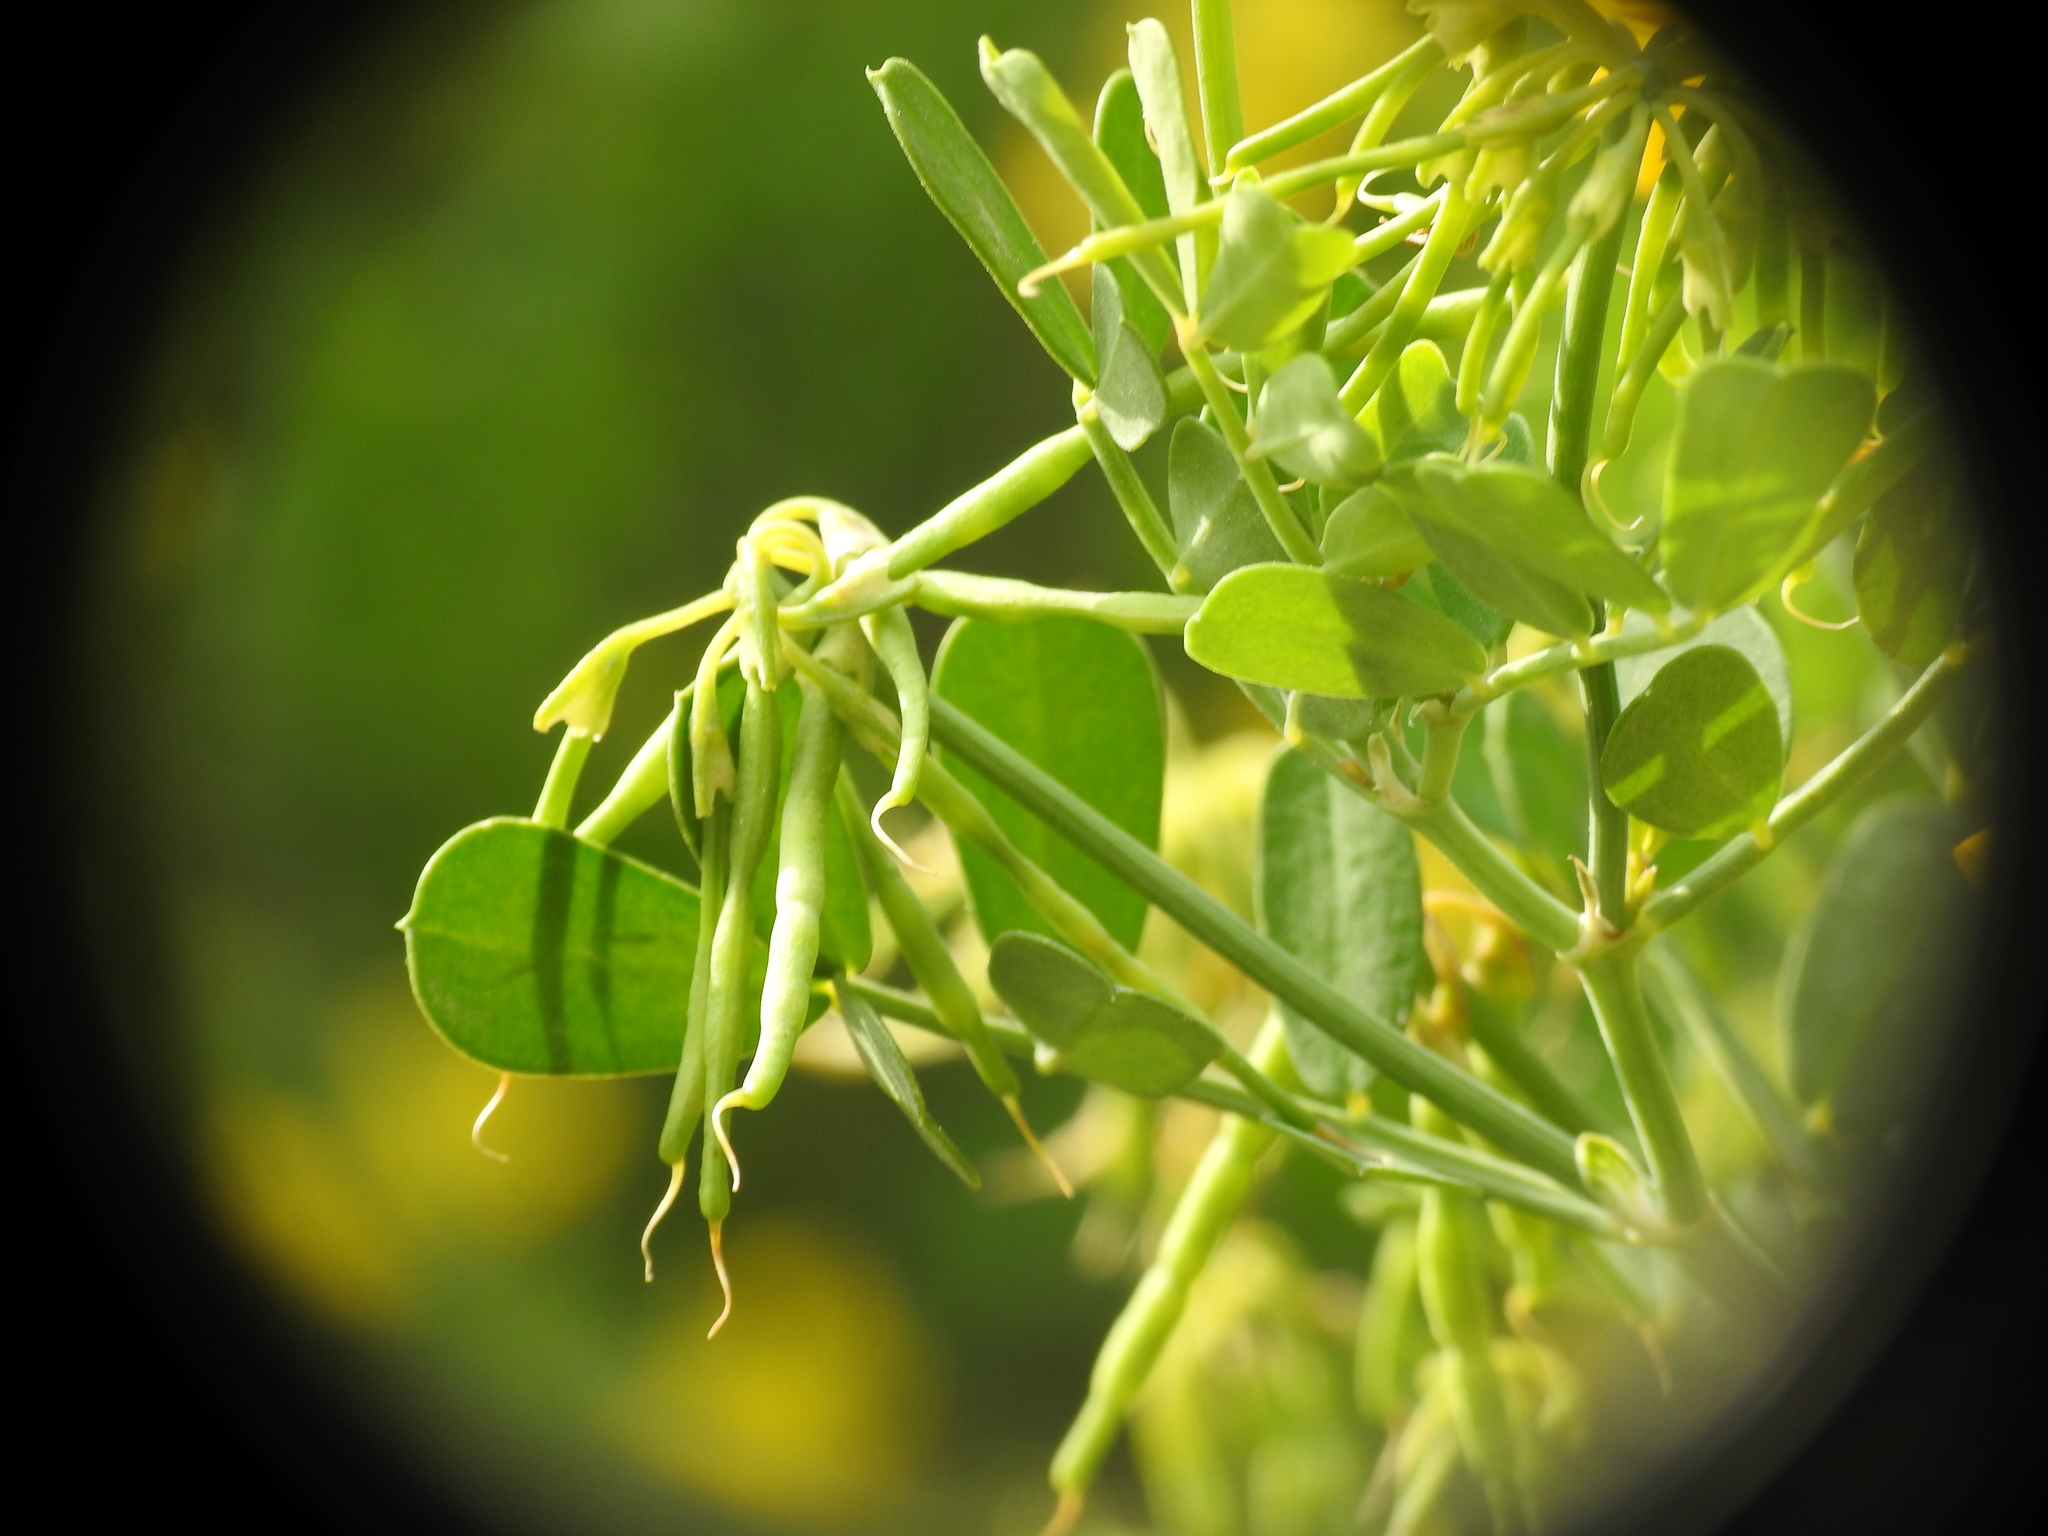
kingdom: Plantae
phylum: Tracheophyta
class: Magnoliopsida
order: Fabales
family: Fabaceae
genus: Coronilla
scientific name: Coronilla valentina
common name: Shrubby scorpion-vetch
